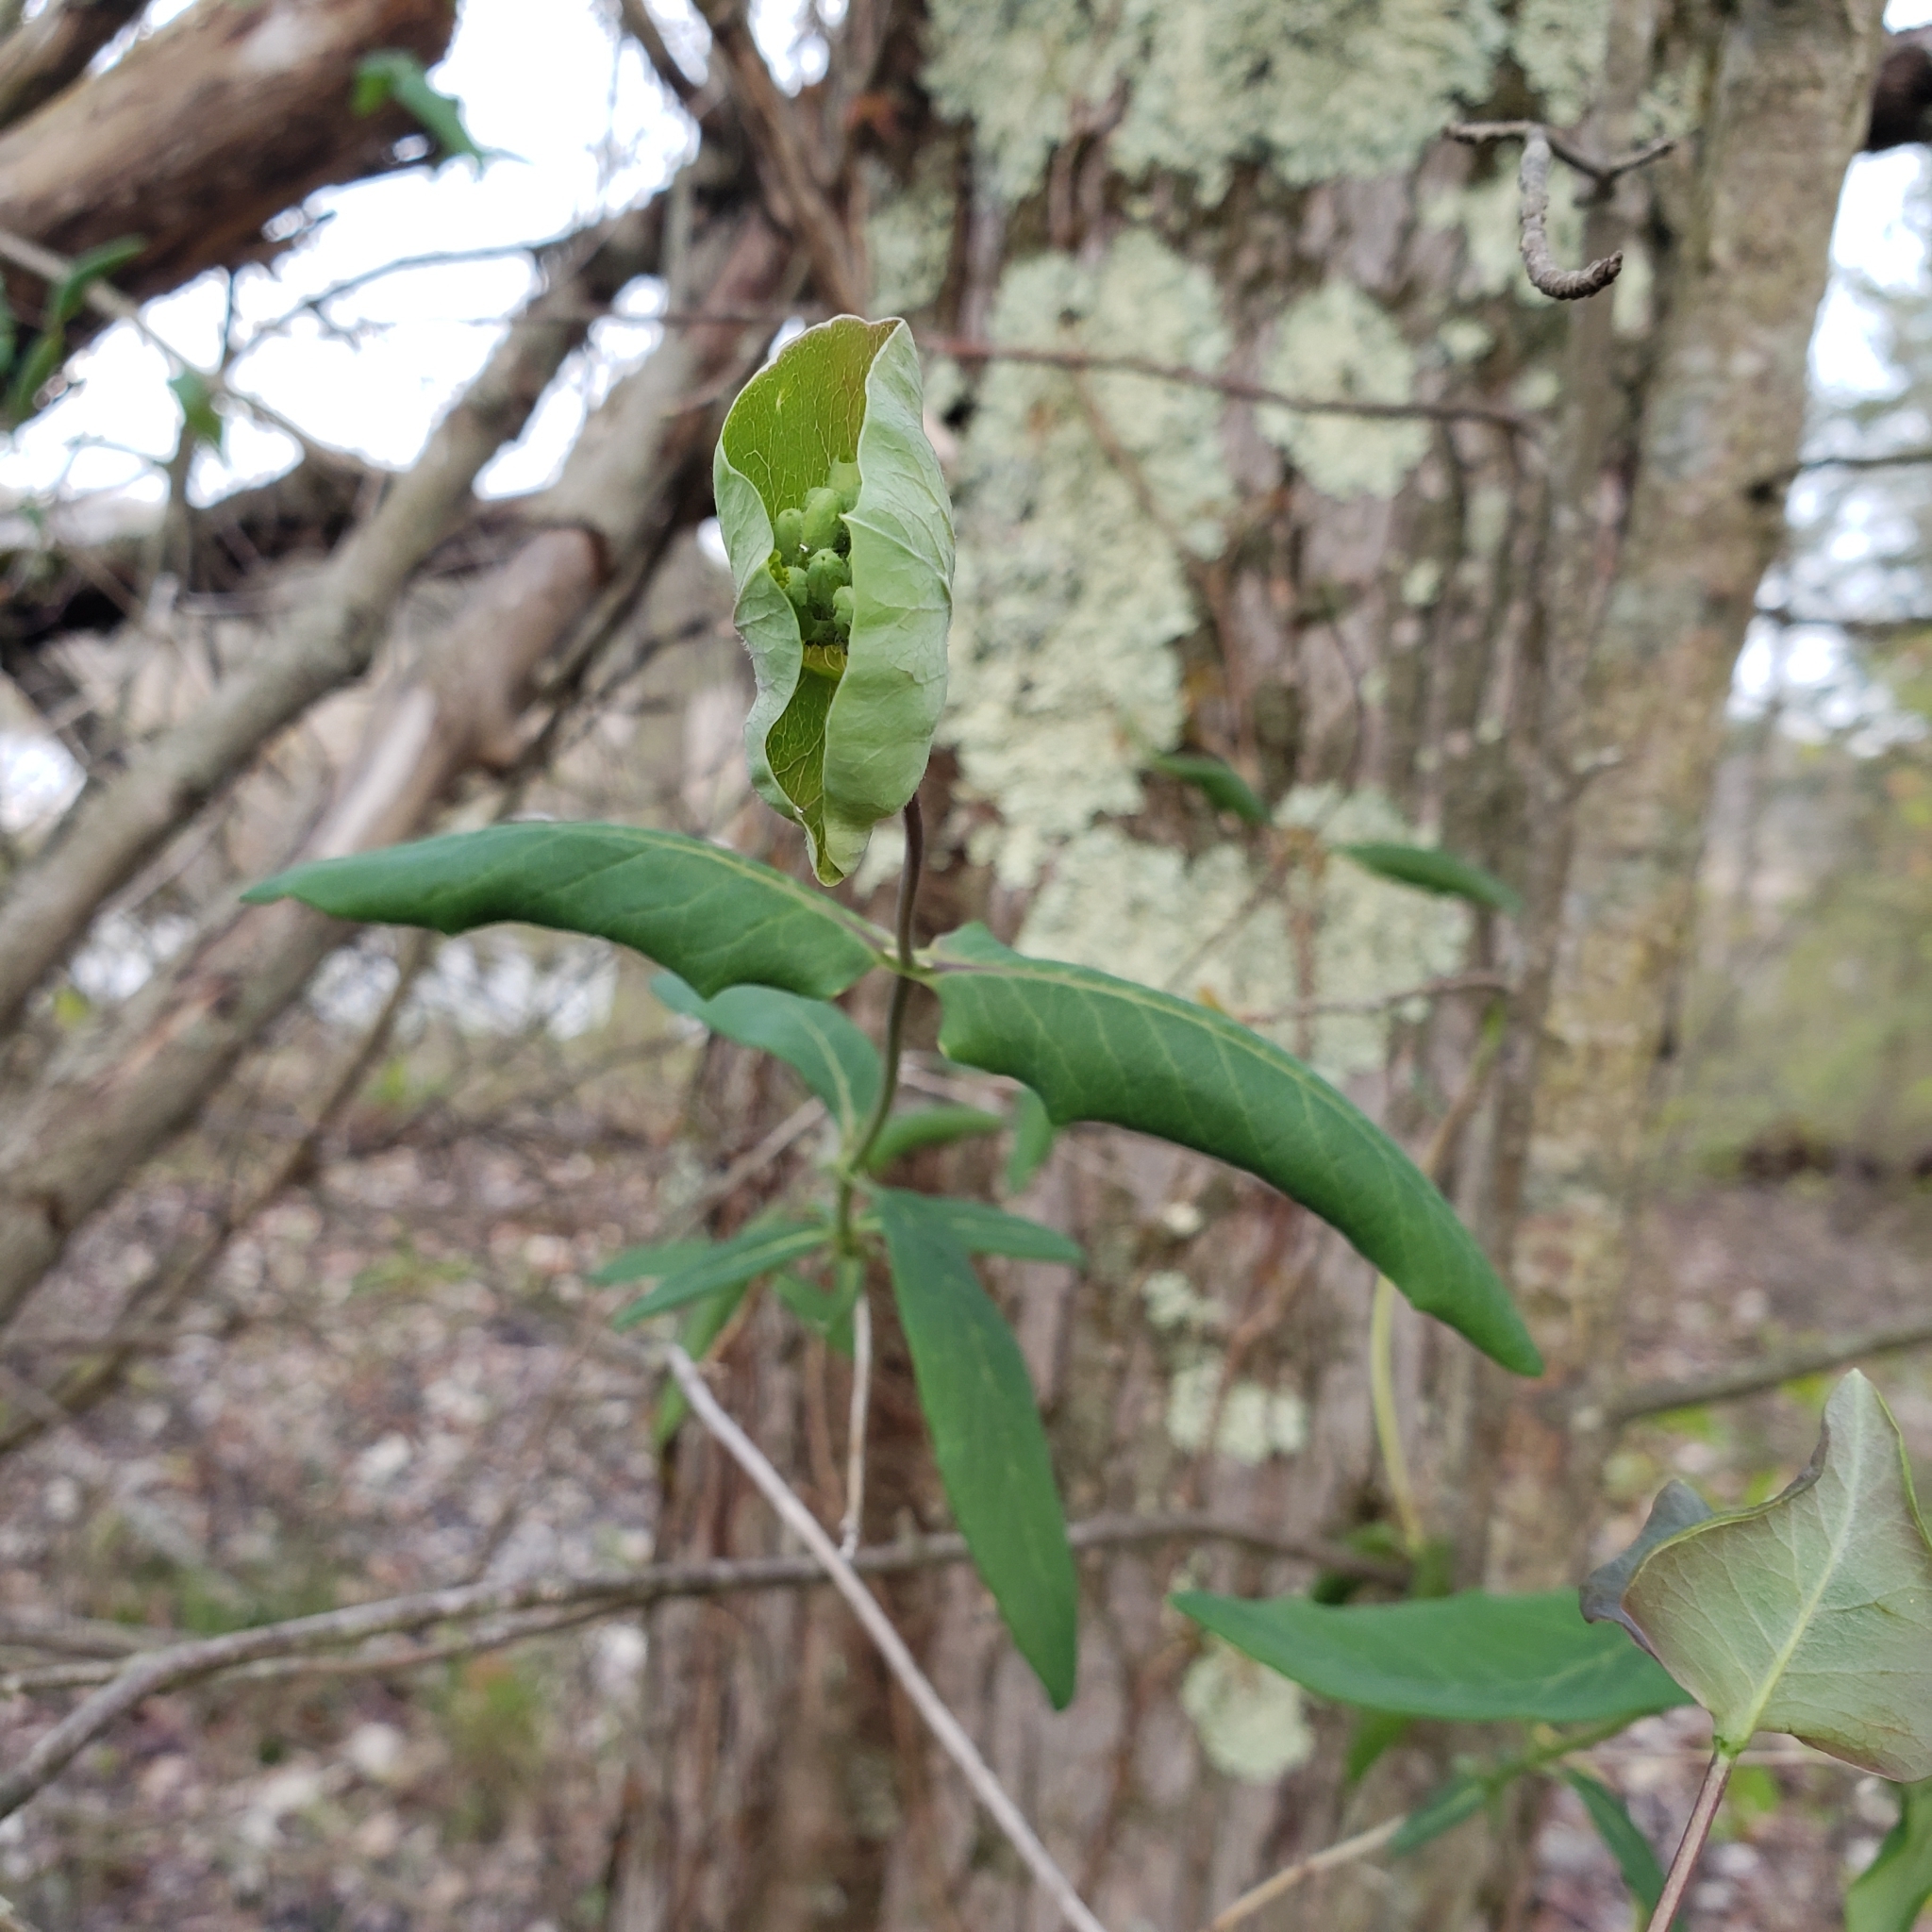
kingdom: Plantae
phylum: Tracheophyta
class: Magnoliopsida
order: Dipsacales
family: Caprifoliaceae
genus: Lonicera
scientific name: Lonicera dioica
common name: Limber honeysuckle
